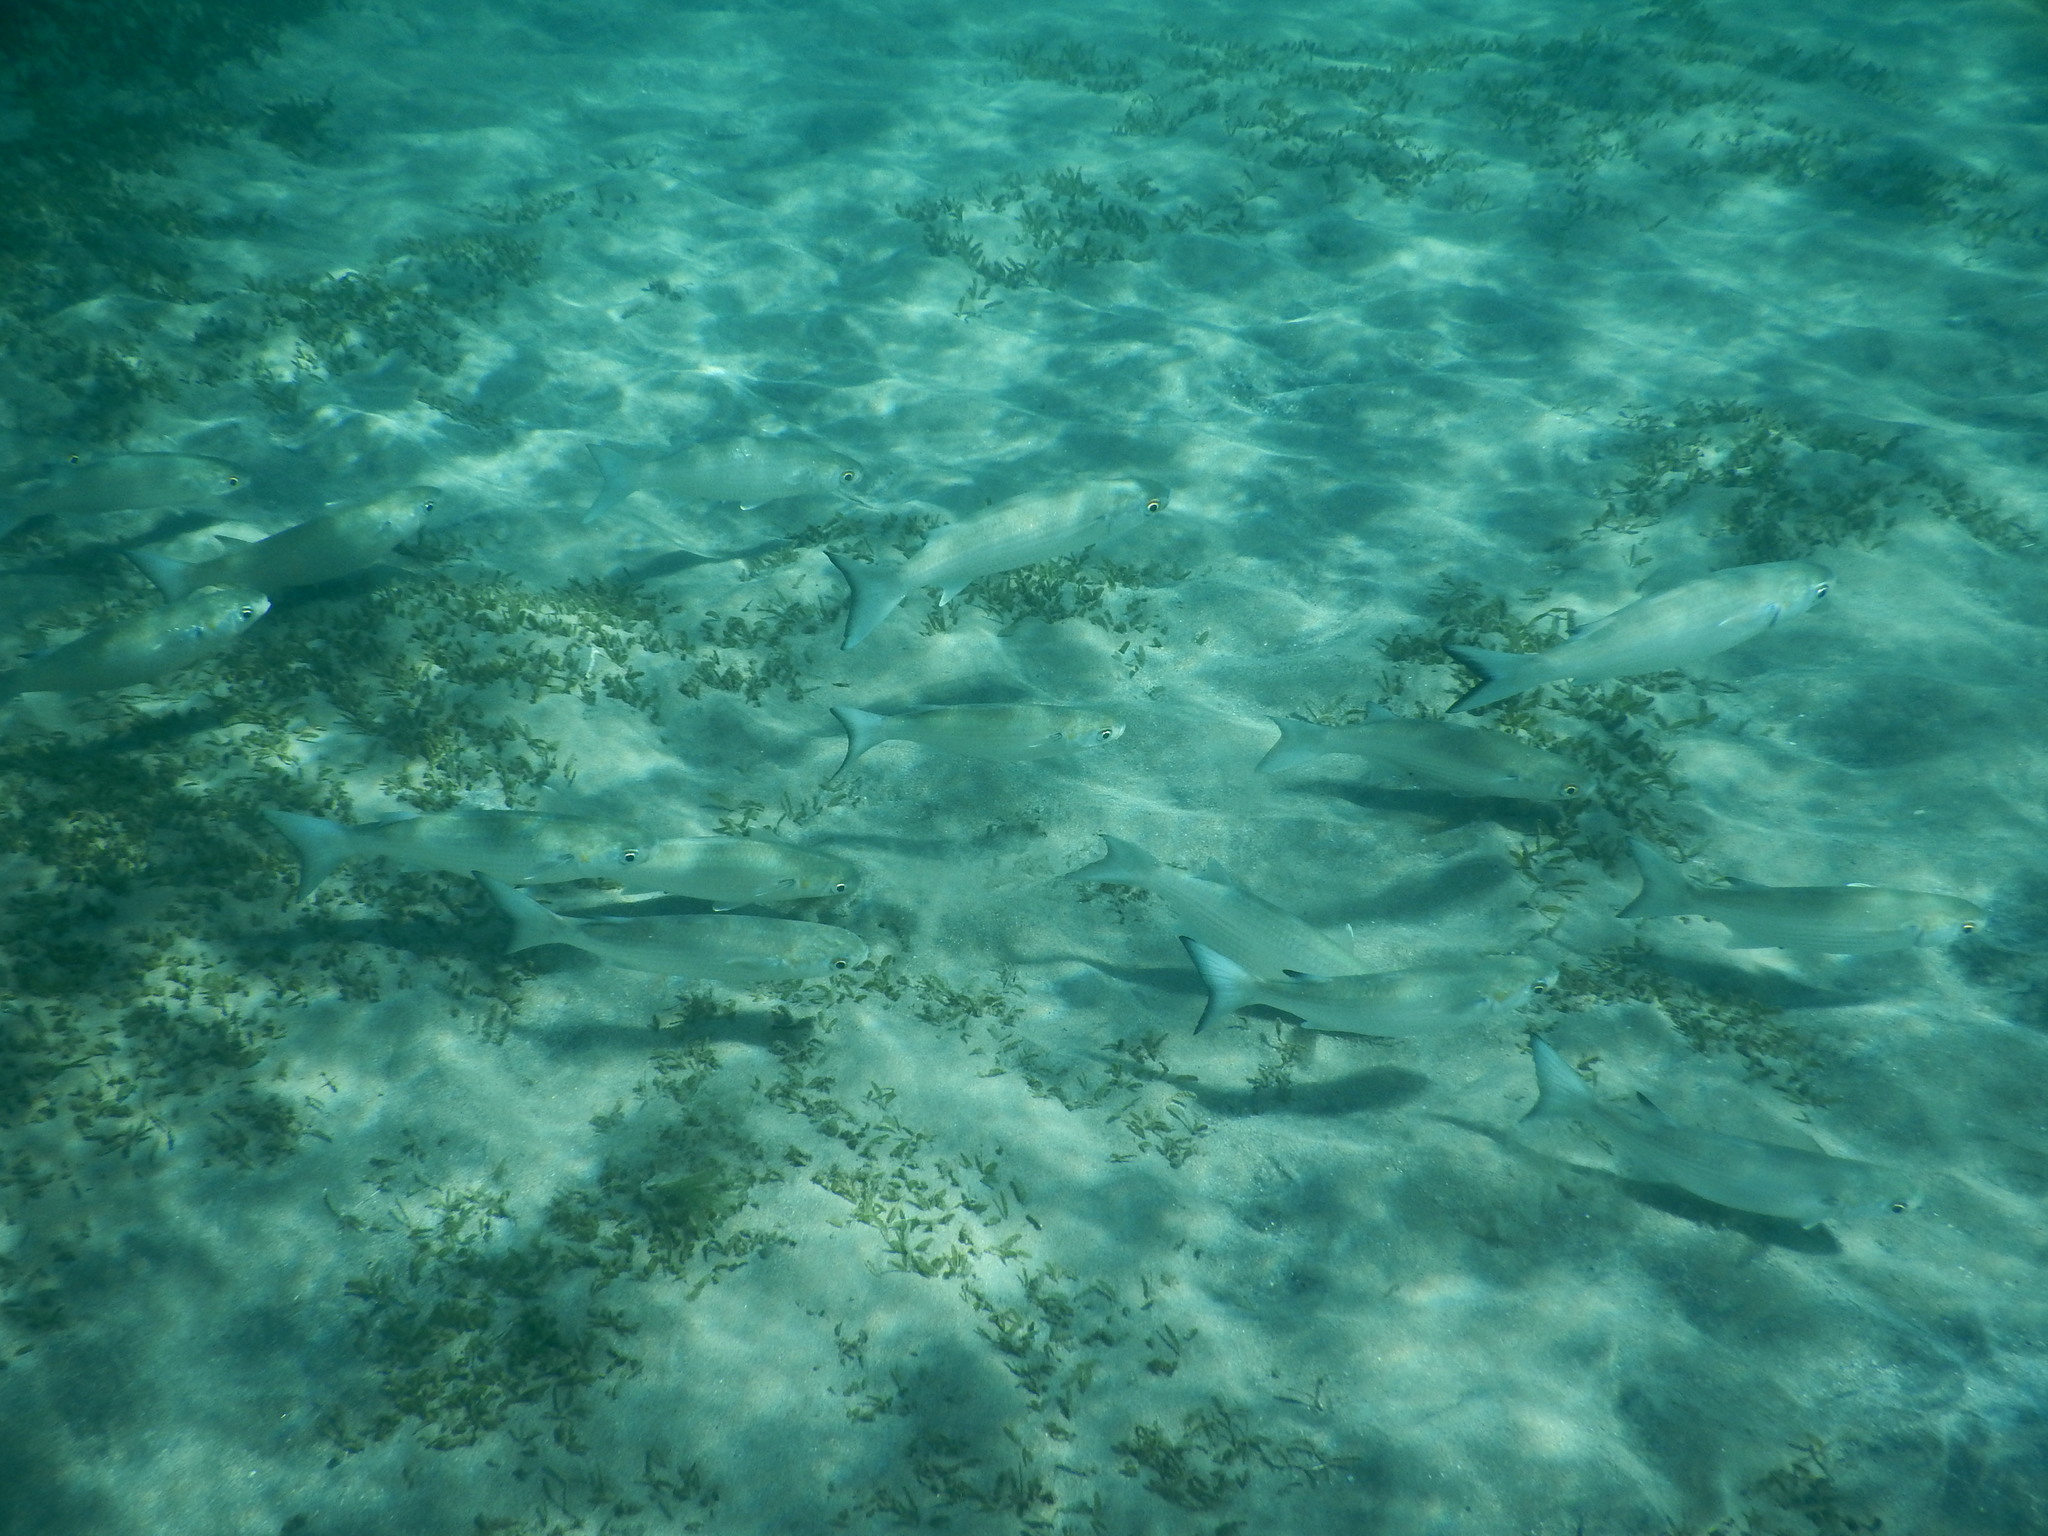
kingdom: Animalia
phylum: Chordata
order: Mugiliformes
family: Mugilidae
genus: Mugil
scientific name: Mugil curema
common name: White mullet
